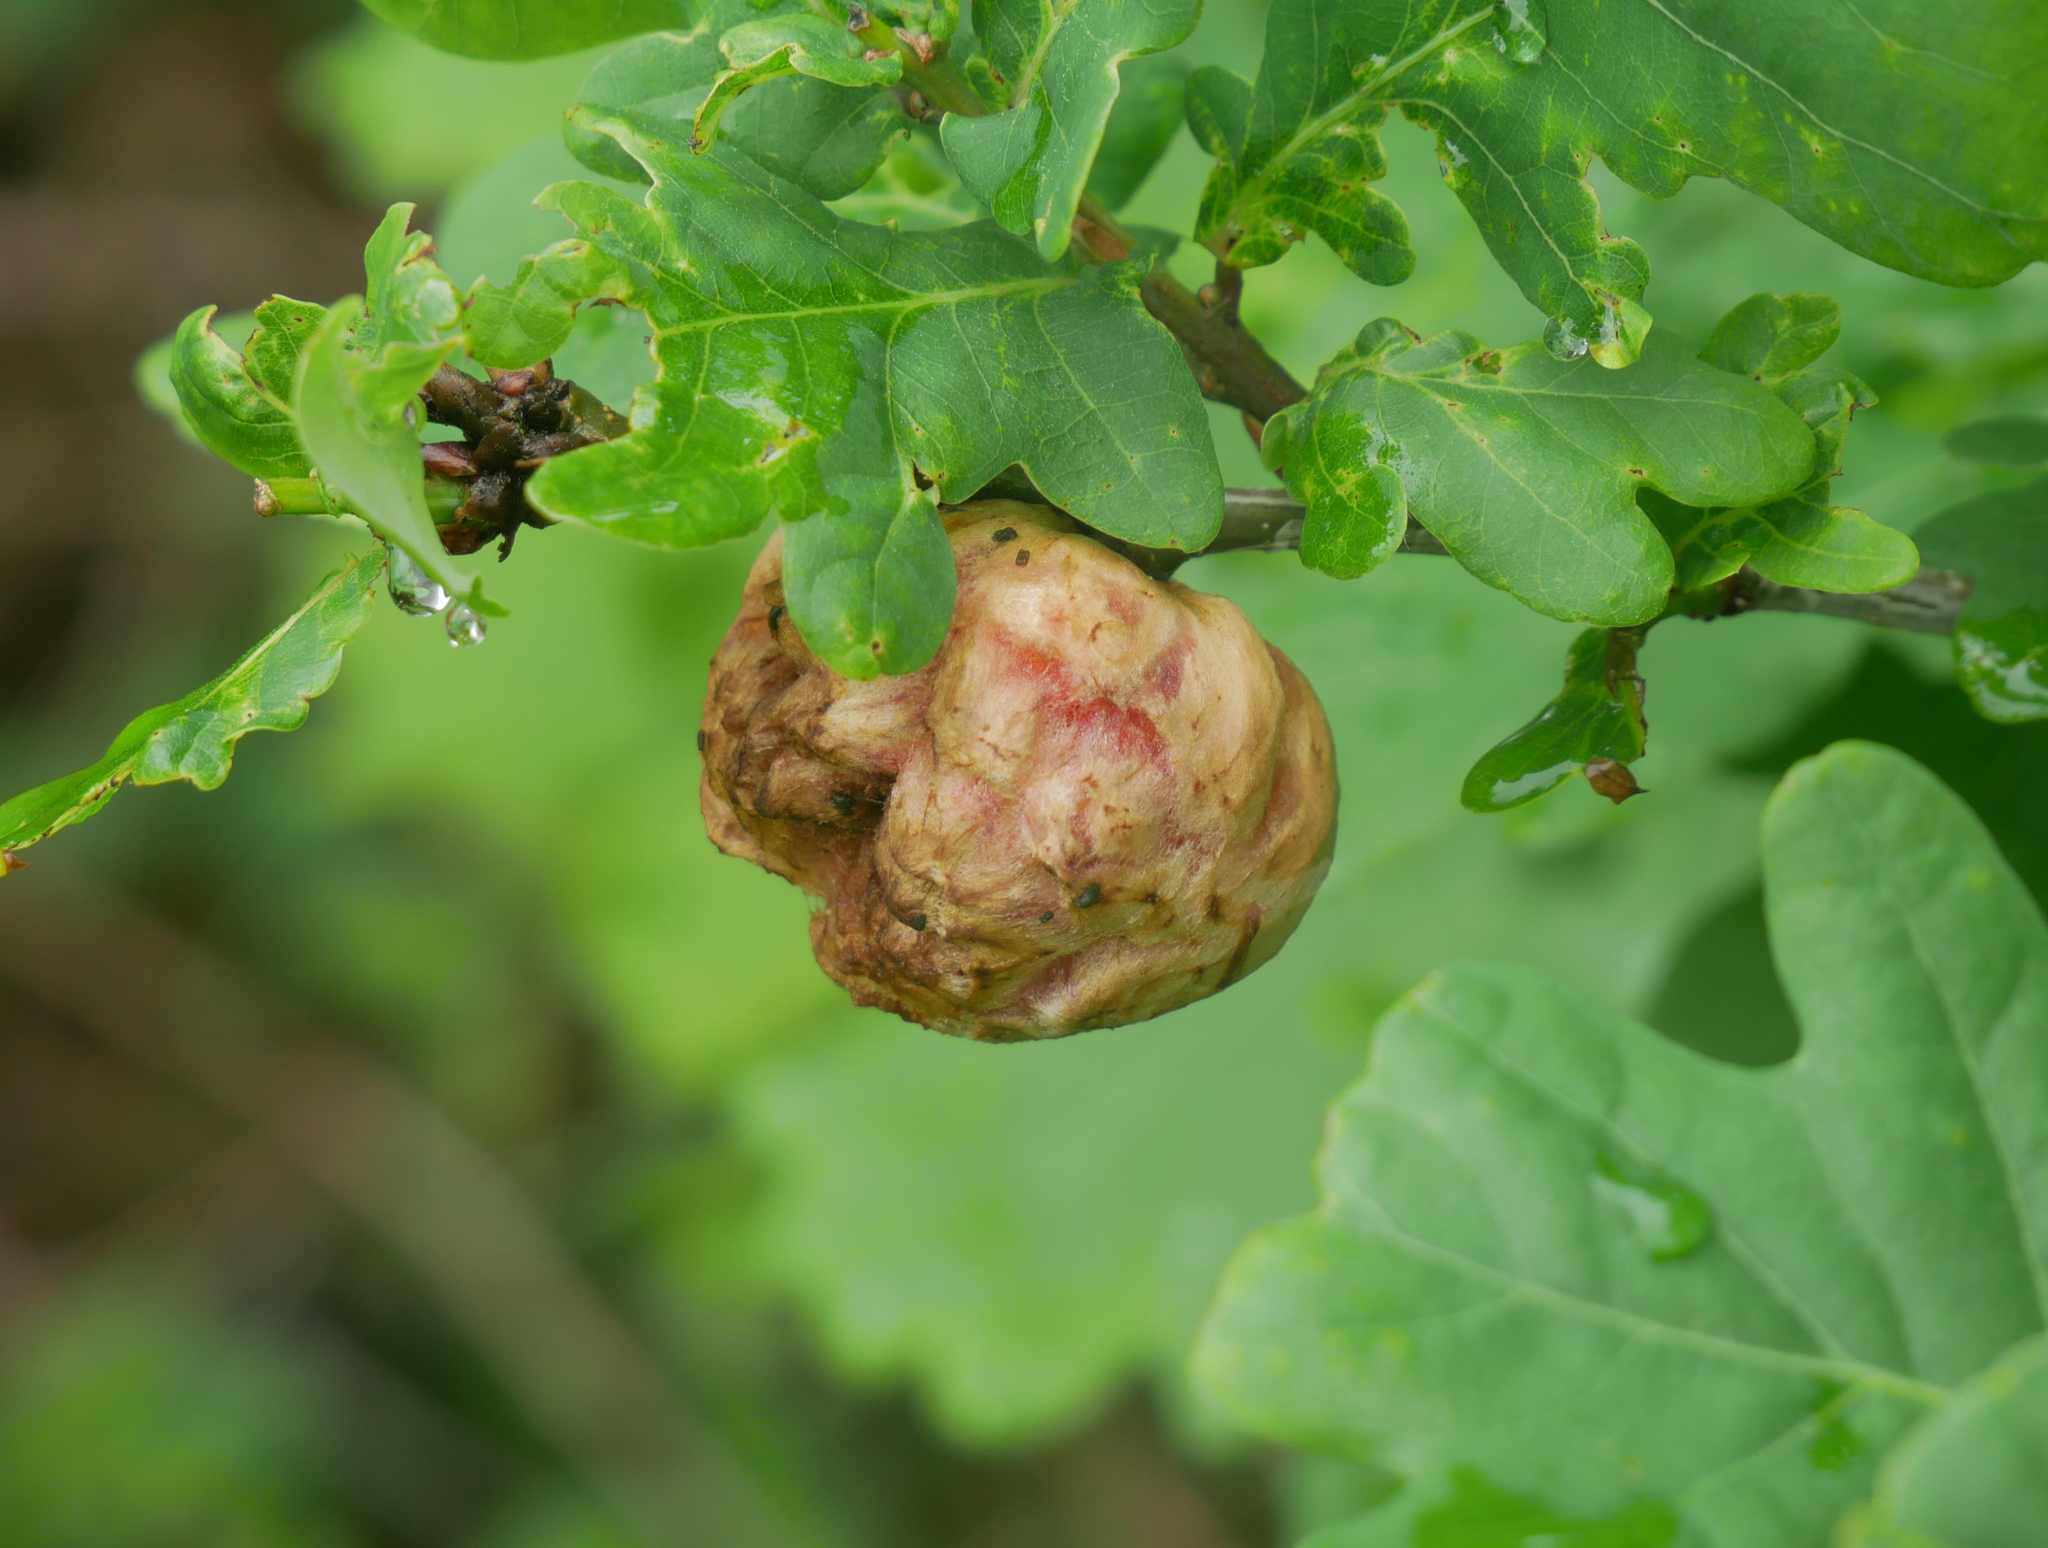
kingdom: Animalia
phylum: Arthropoda
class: Insecta
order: Hymenoptera
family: Cynipidae
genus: Biorhiza
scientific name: Biorhiza pallida
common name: Oak apple
